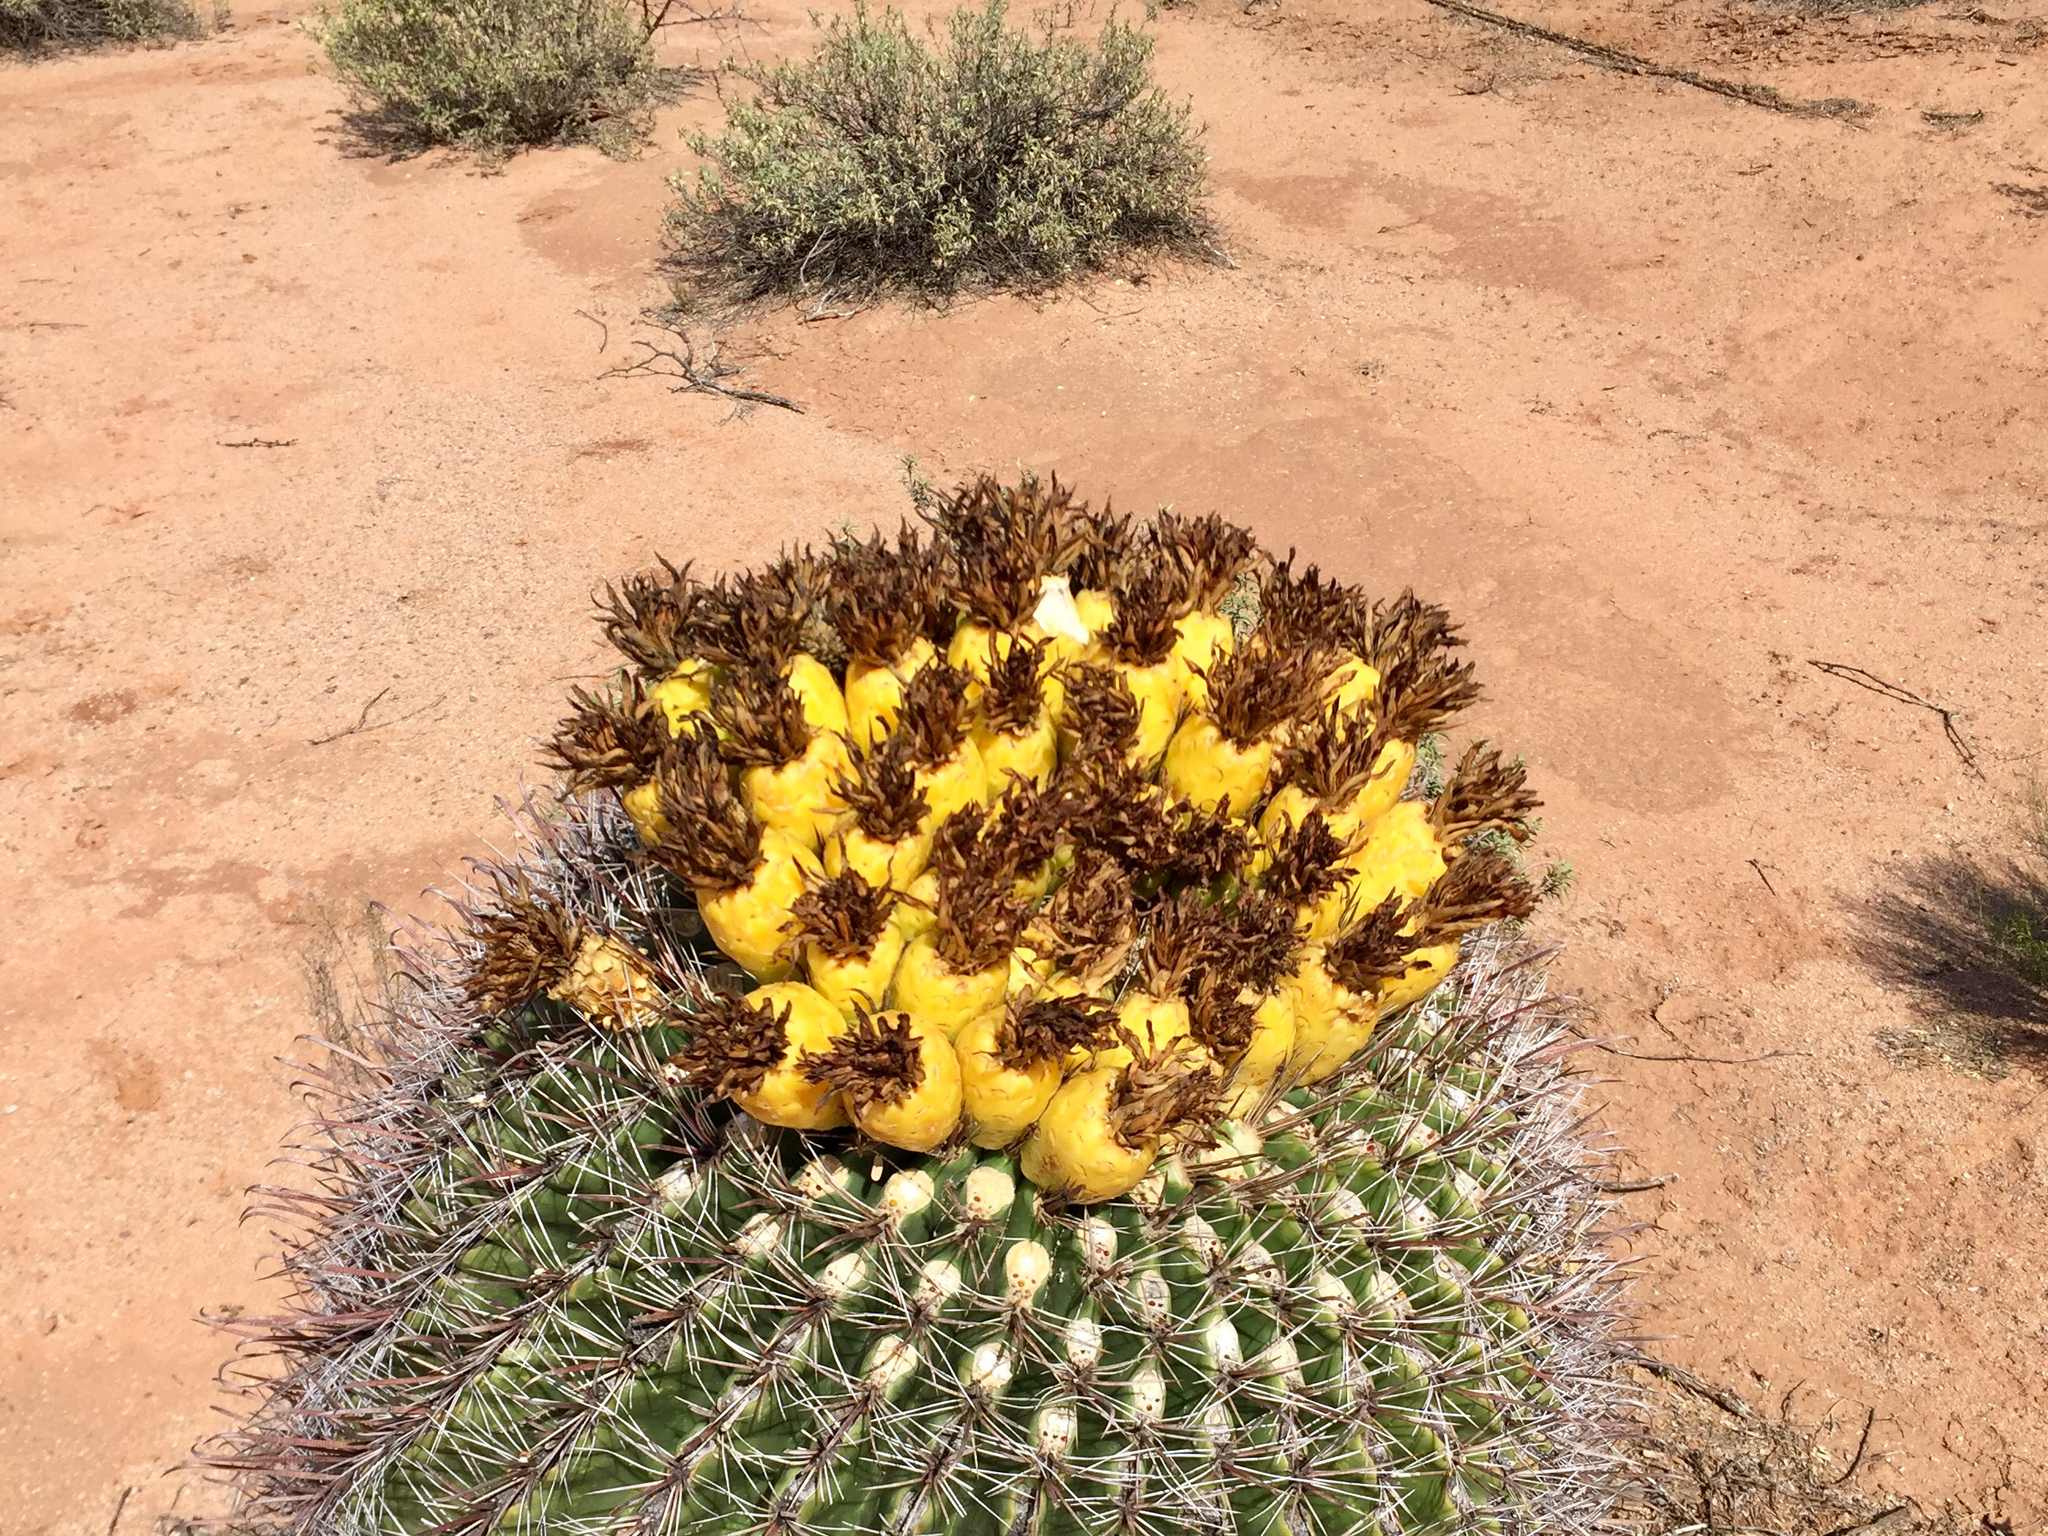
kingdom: Plantae
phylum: Tracheophyta
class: Magnoliopsida
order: Caryophyllales
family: Cactaceae
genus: Ferocactus
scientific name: Ferocactus wislizeni
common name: Candy barrel cactus
